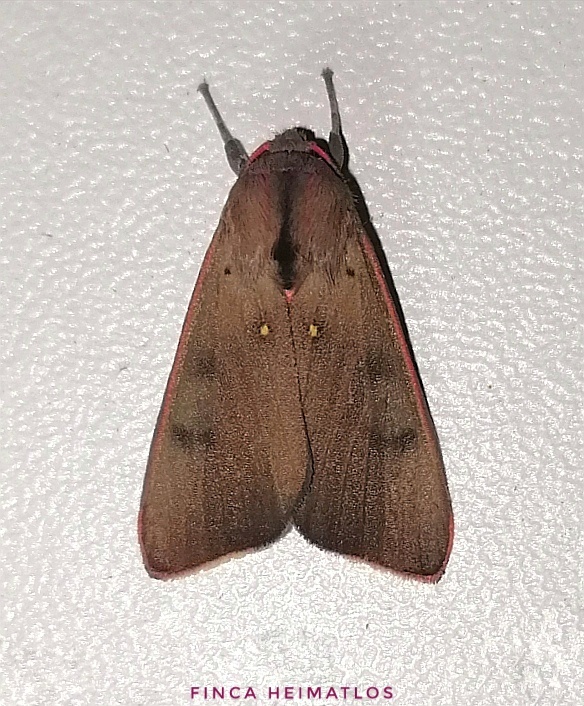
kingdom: Animalia
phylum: Arthropoda
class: Insecta
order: Lepidoptera
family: Erebidae
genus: Melese
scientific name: Melese incertus
